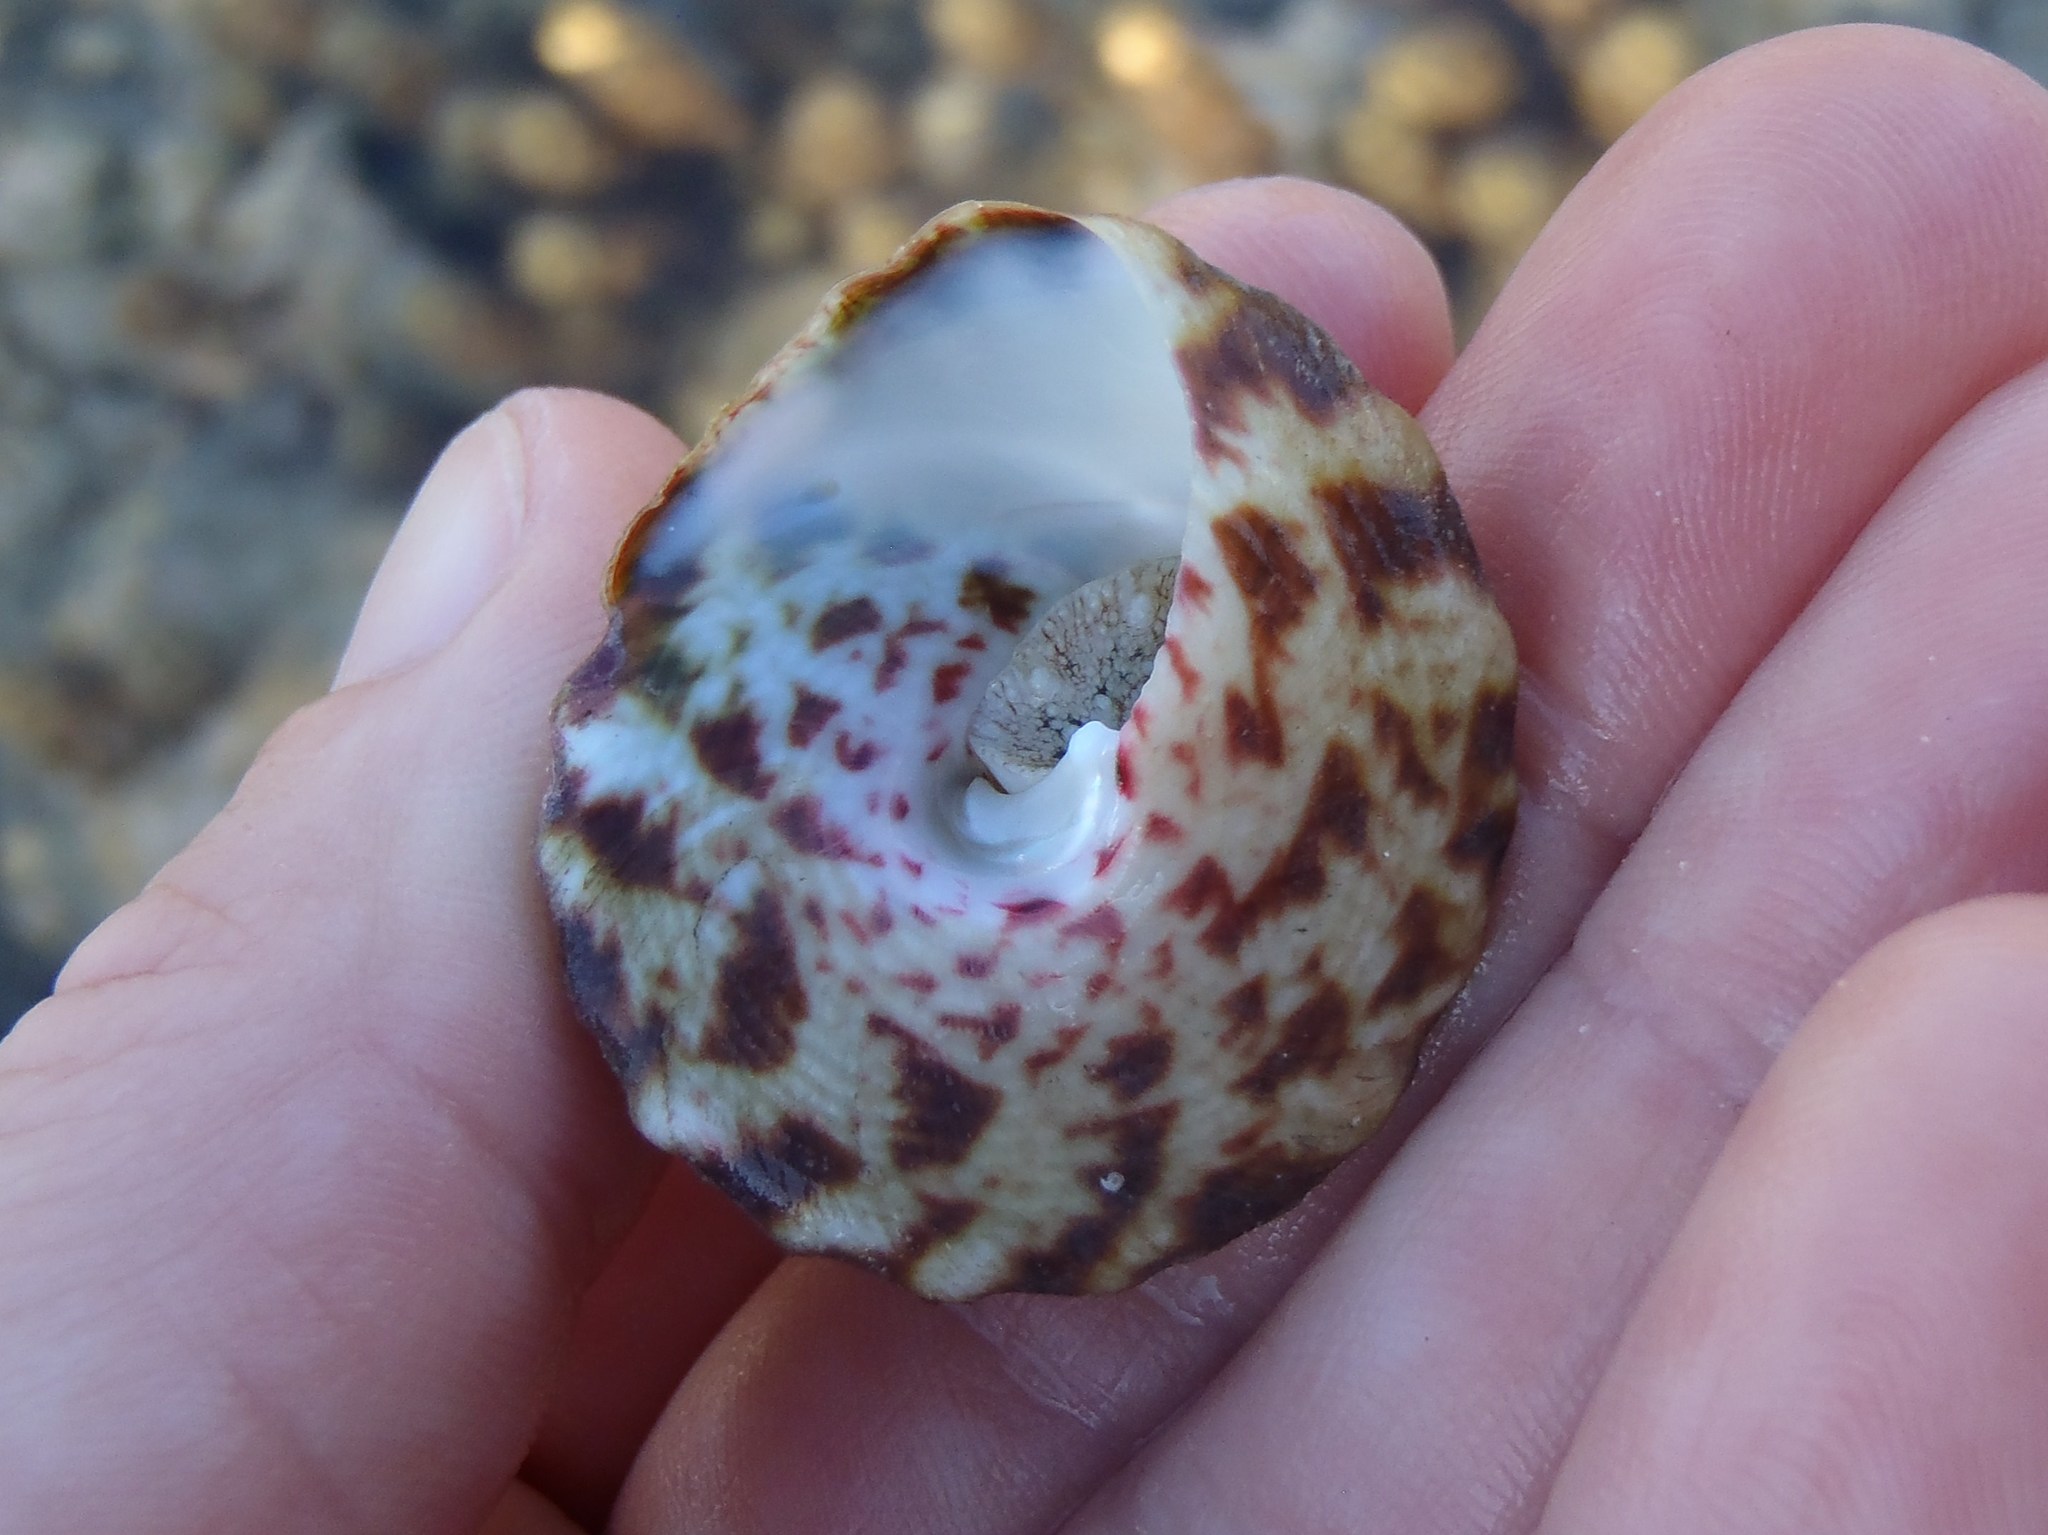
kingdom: Animalia
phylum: Mollusca
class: Gastropoda
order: Trochida
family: Tegulidae
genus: Rochia
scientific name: Rochia nilotica
